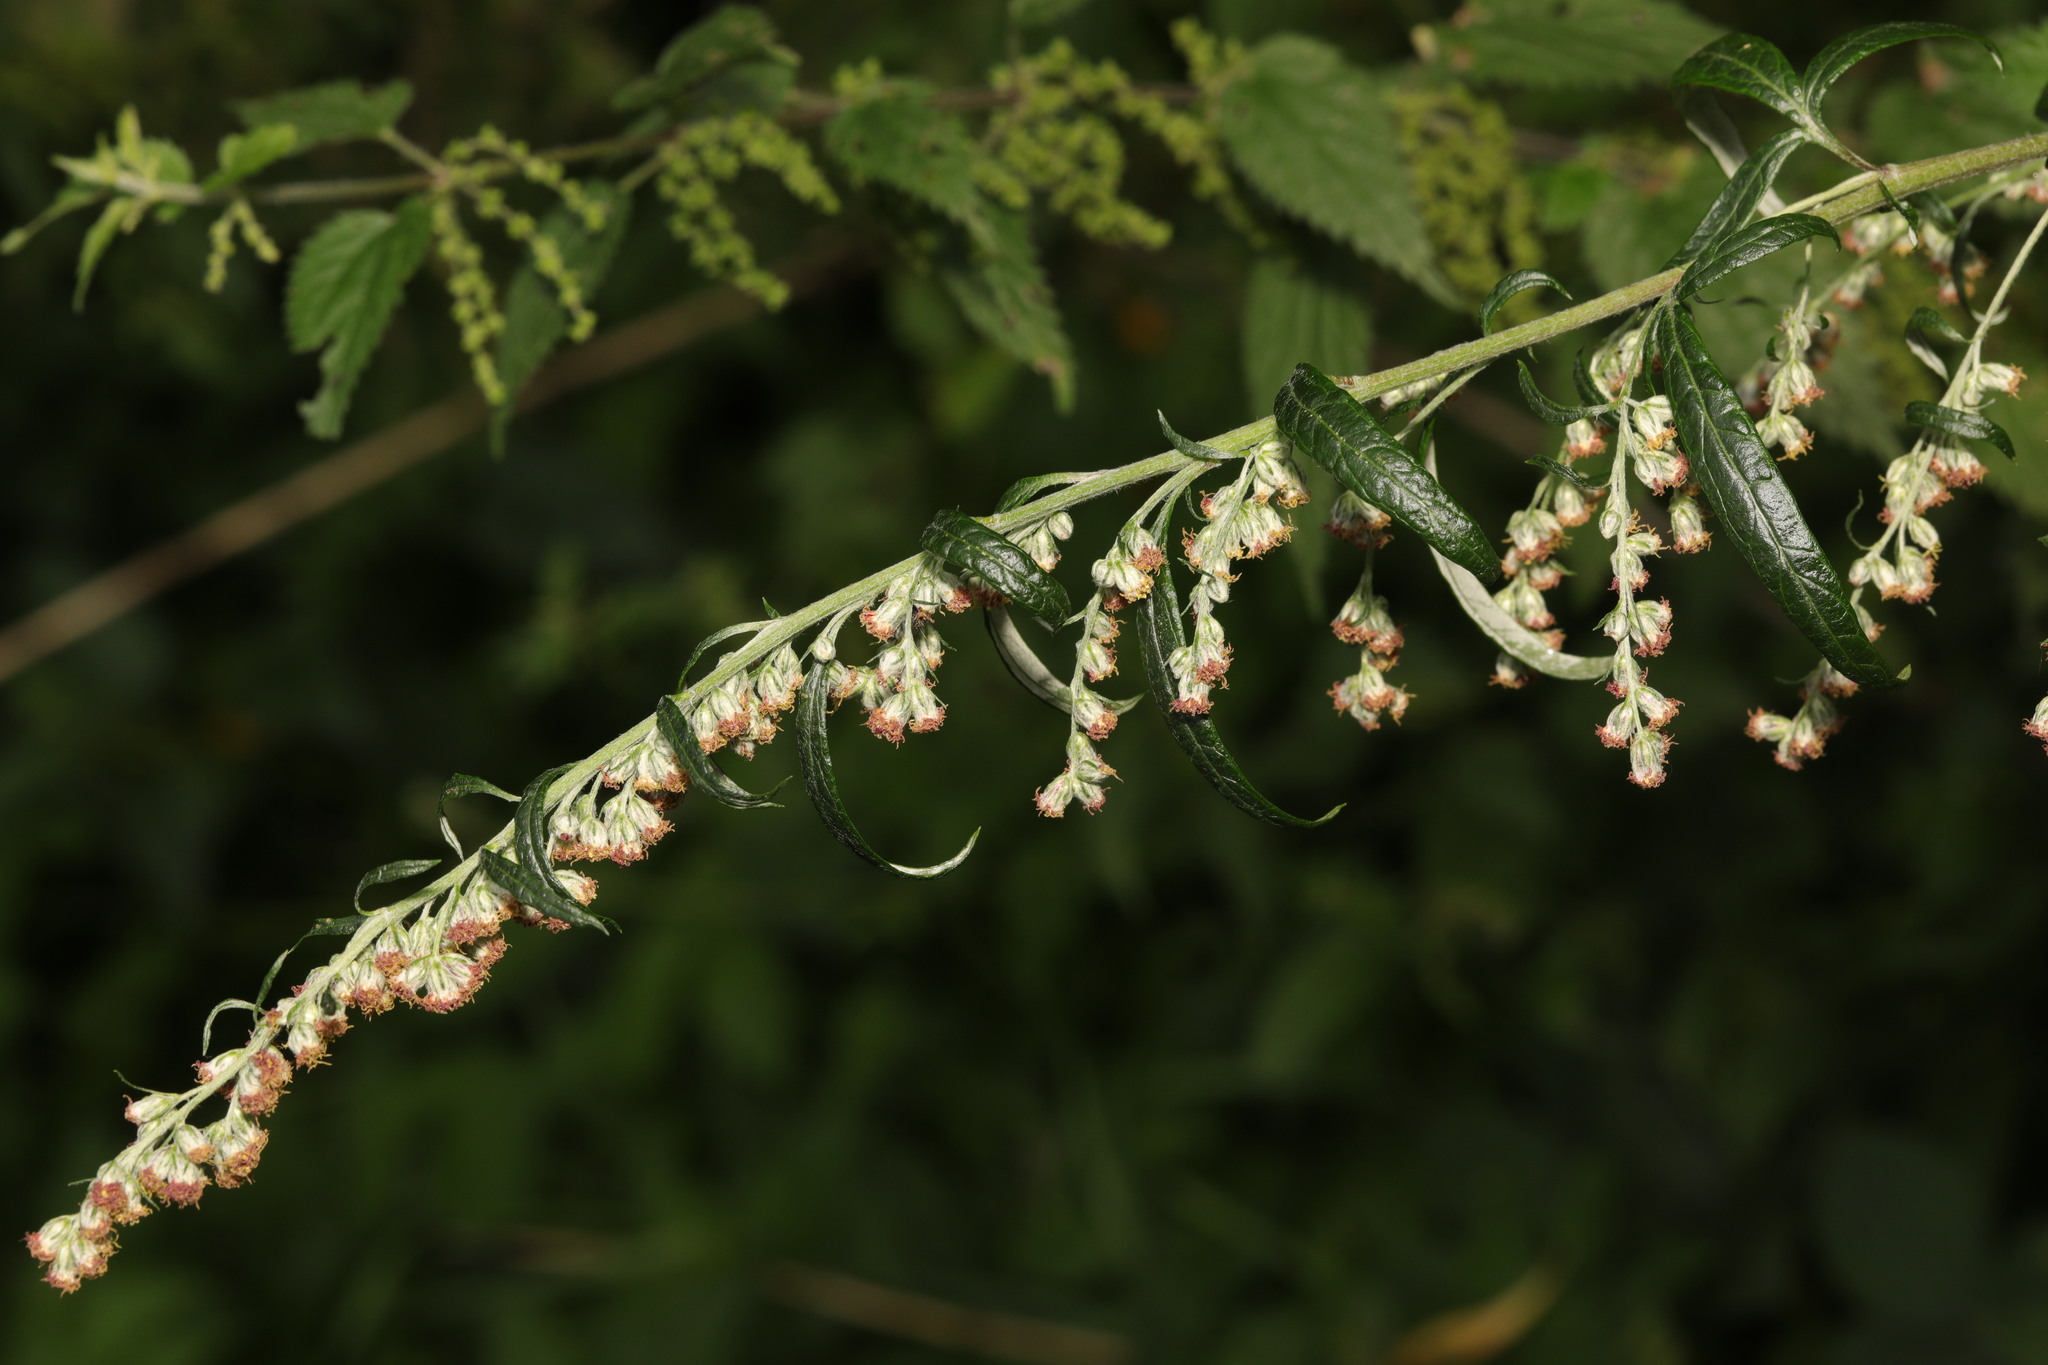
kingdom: Plantae
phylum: Tracheophyta
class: Magnoliopsida
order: Asterales
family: Asteraceae
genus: Artemisia
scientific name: Artemisia vulgaris
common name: Mugwort
